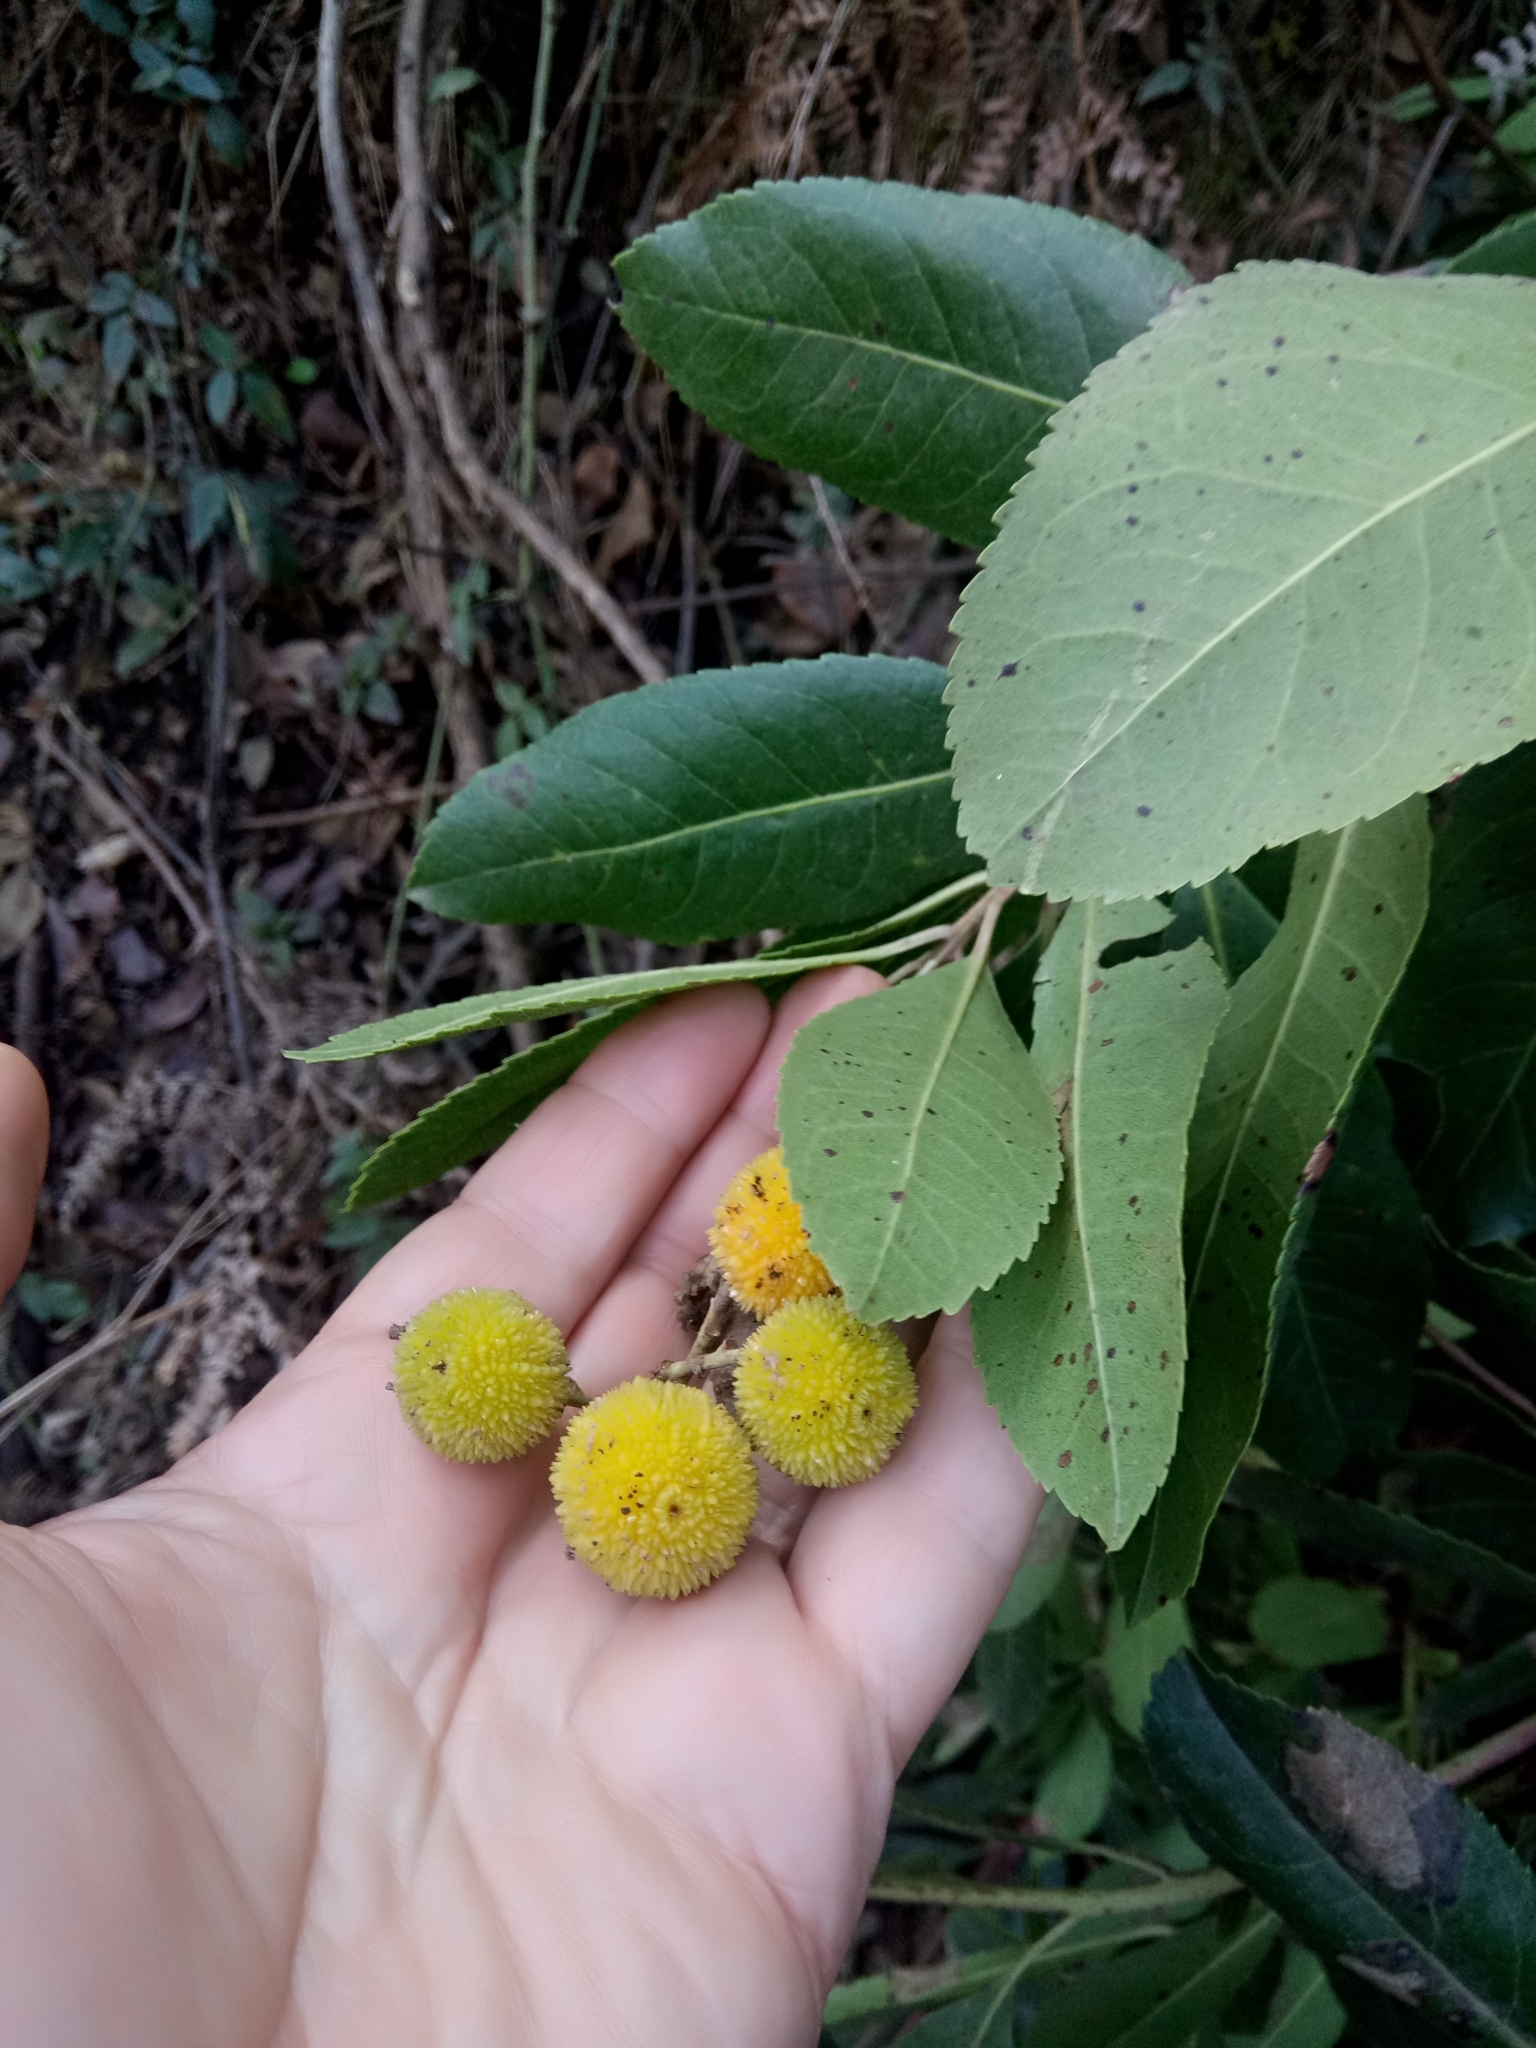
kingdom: Plantae
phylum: Tracheophyta
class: Magnoliopsida
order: Ericales
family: Ericaceae
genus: Arbutus
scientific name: Arbutus unedo
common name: Strawberry-tree
